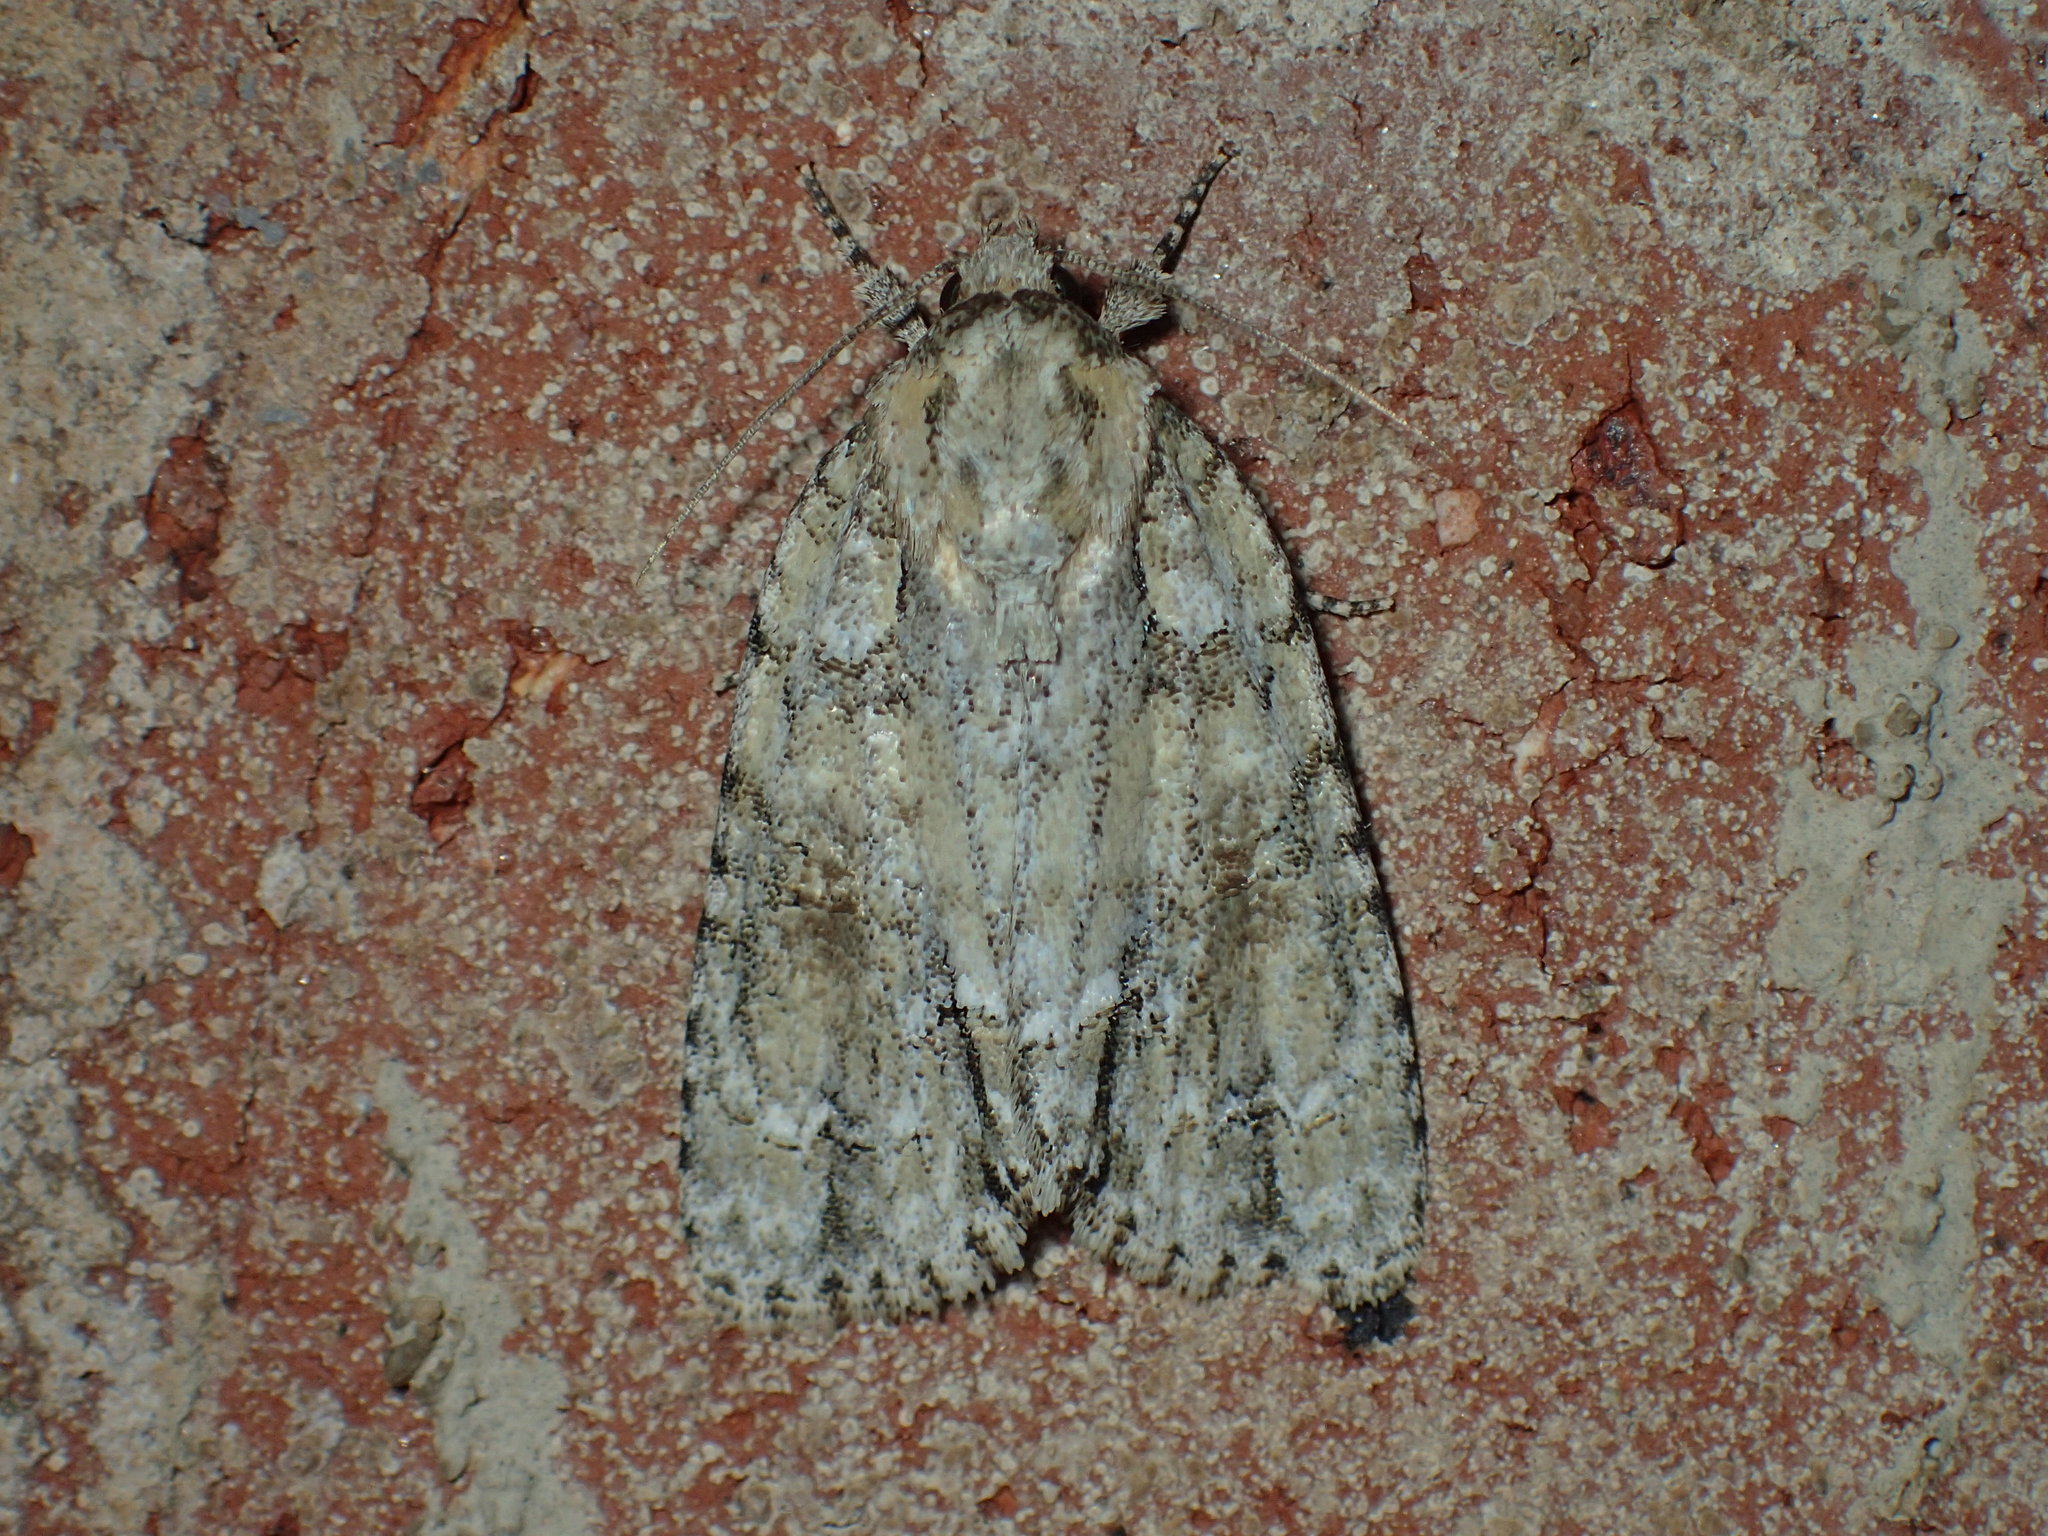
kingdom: Animalia
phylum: Arthropoda
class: Insecta
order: Lepidoptera
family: Noctuidae
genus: Acronicta
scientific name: Acronicta exilis
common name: Exiled dagger moth
